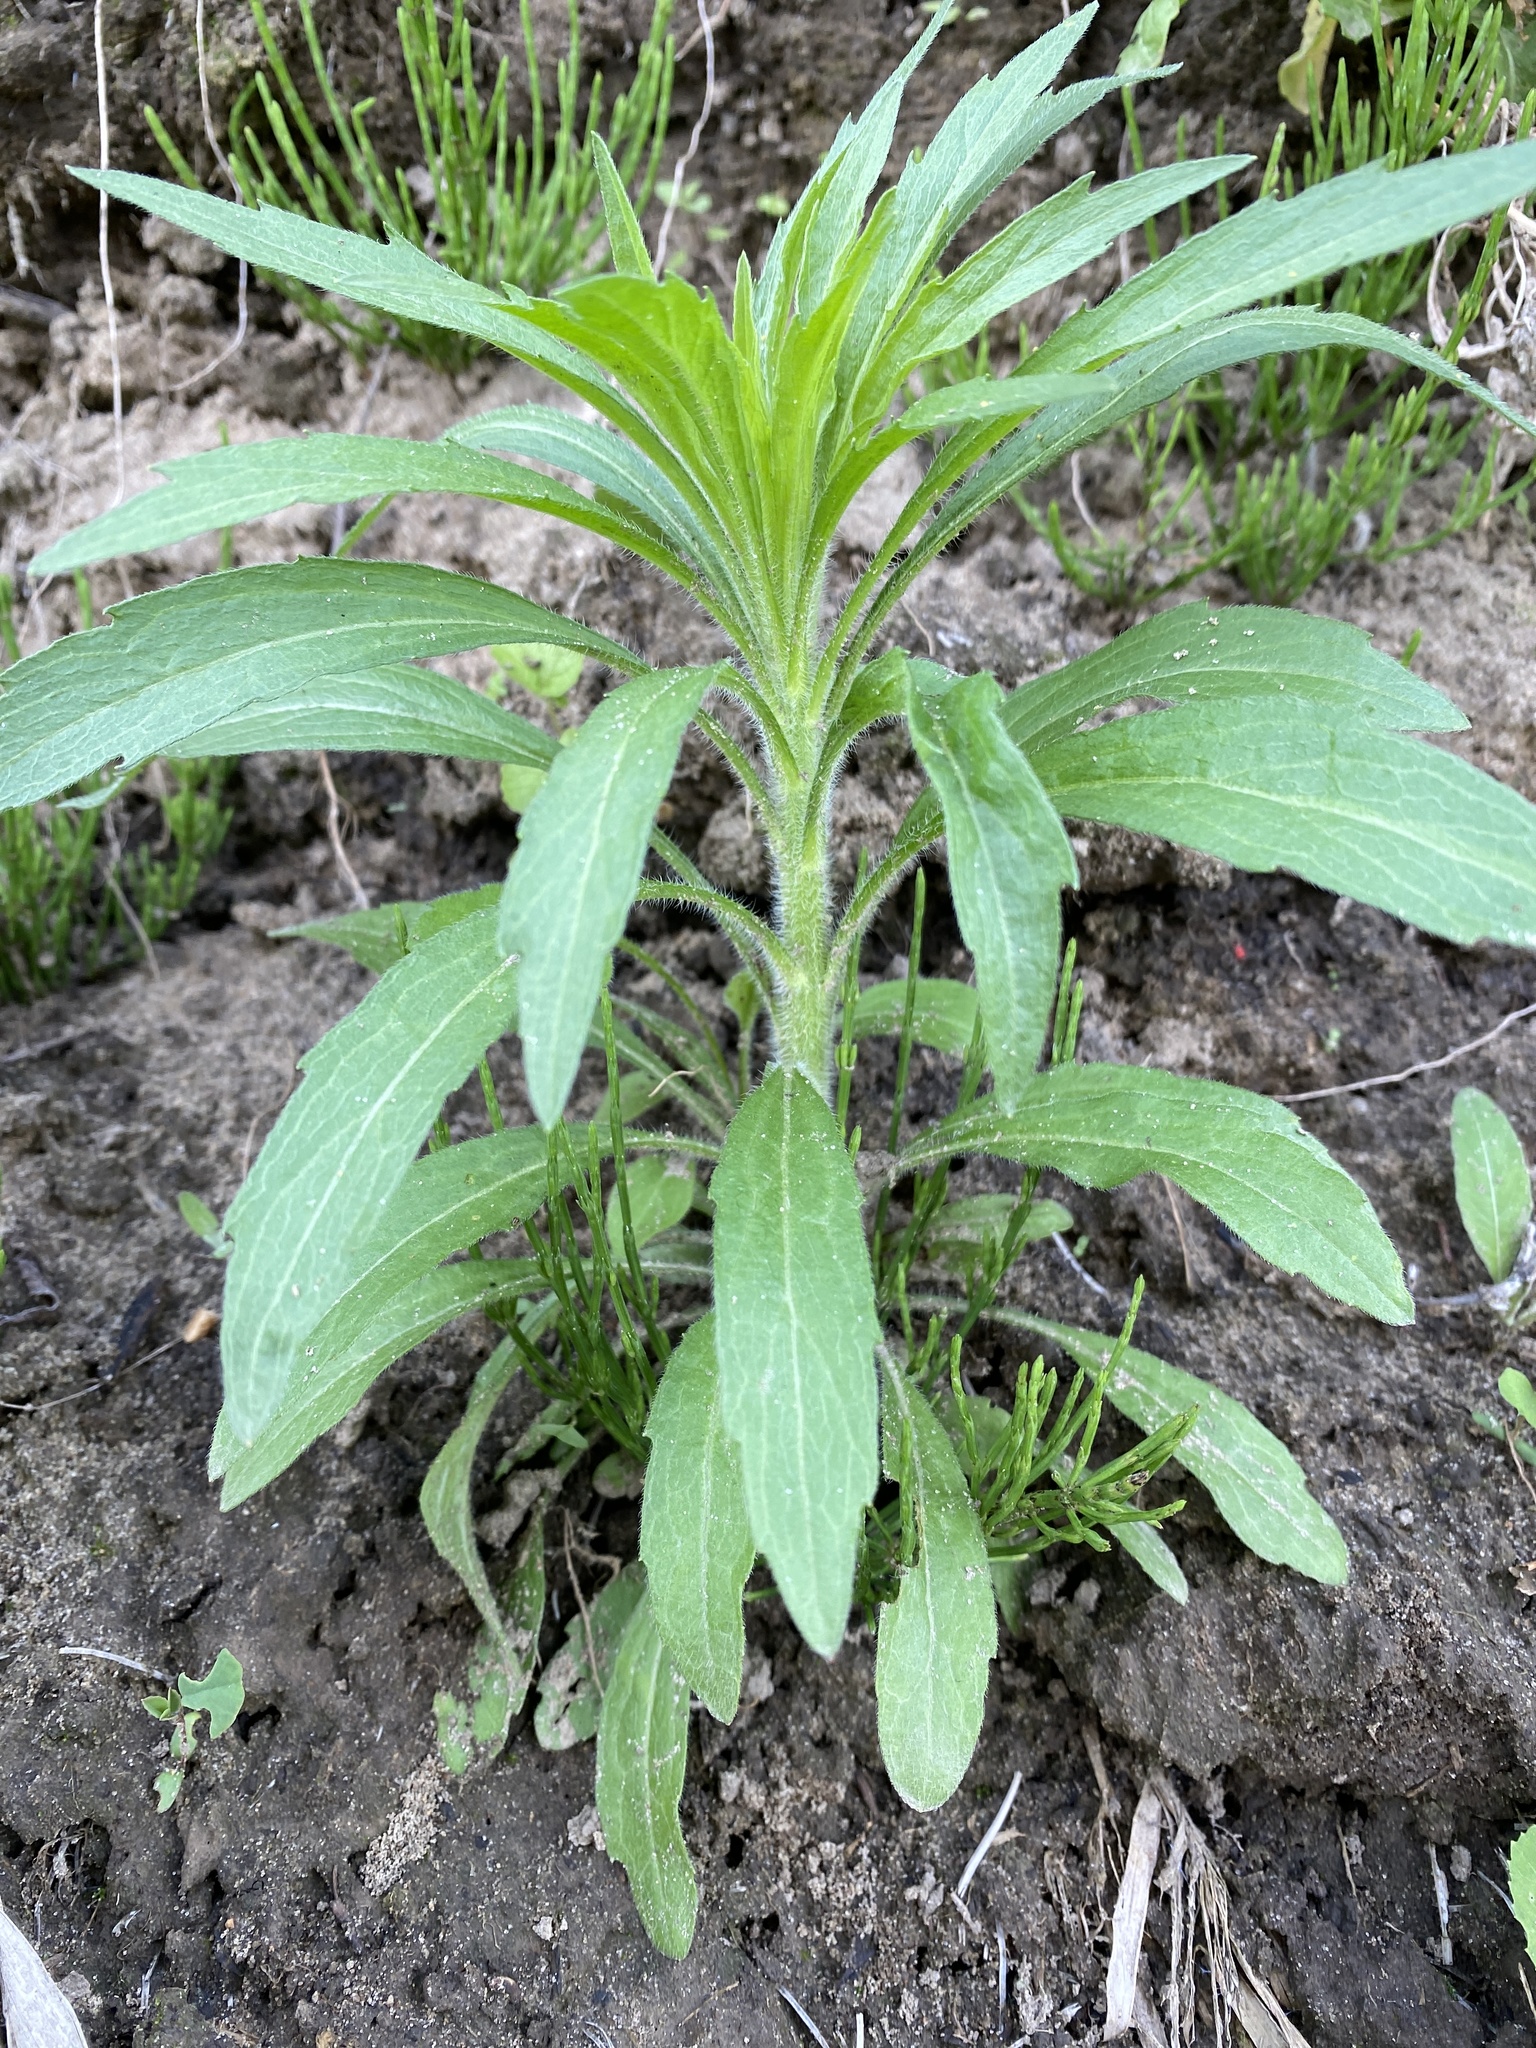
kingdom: Plantae
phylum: Tracheophyta
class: Magnoliopsida
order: Asterales
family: Asteraceae
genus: Erigeron
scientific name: Erigeron canadensis
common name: Canadian fleabane
